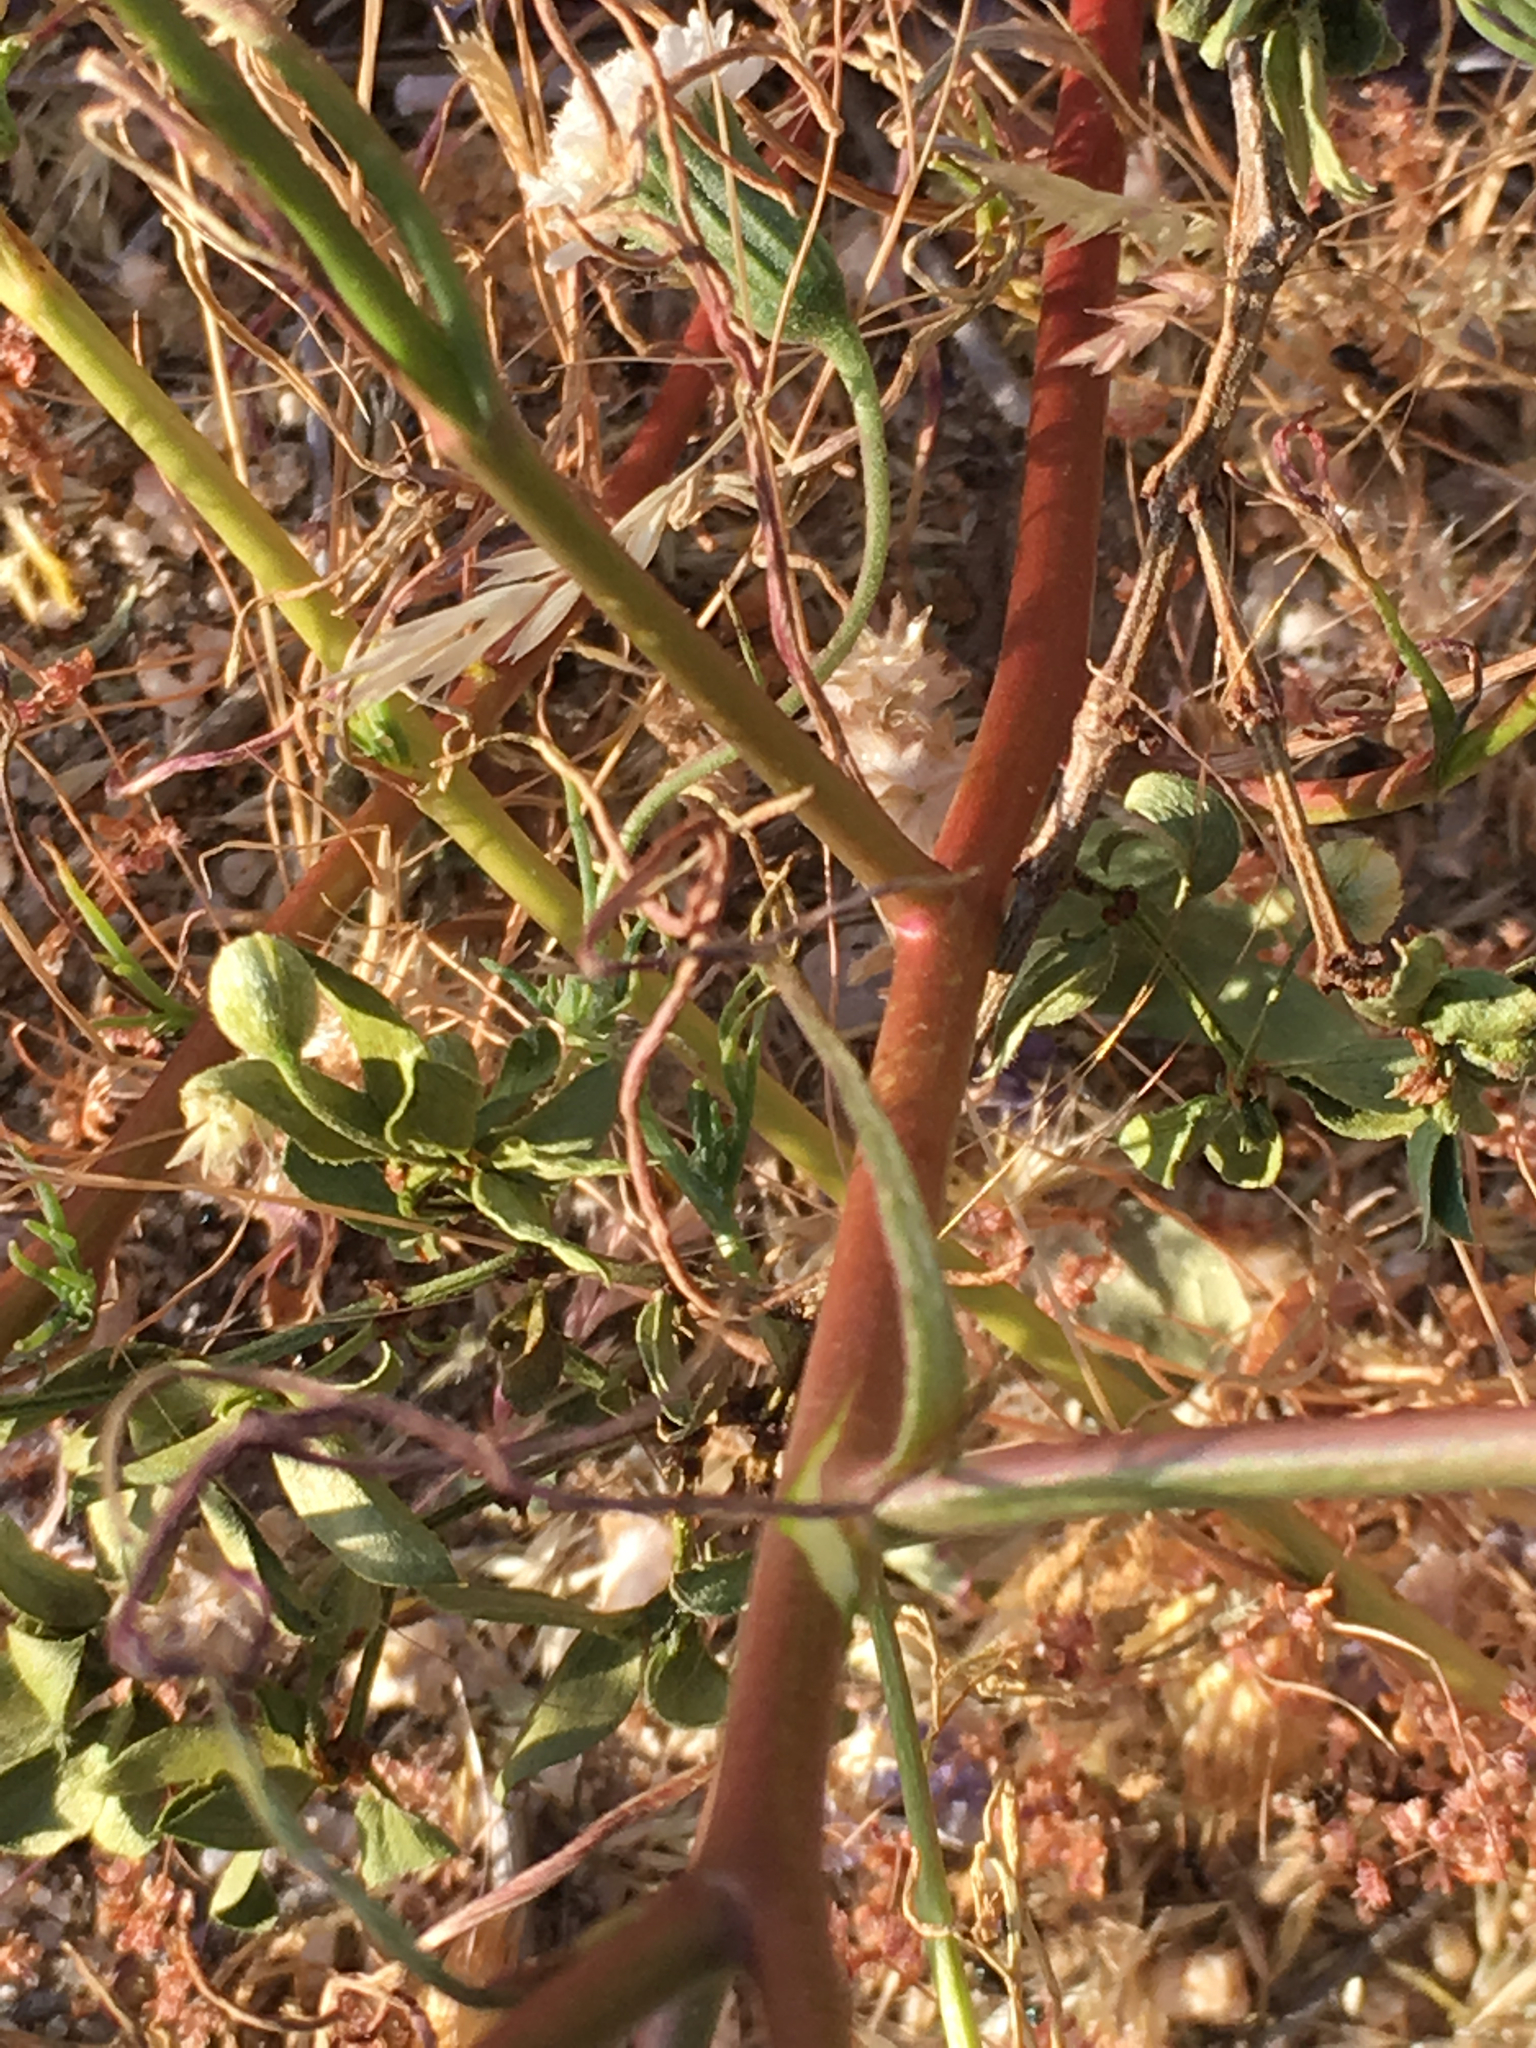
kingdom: Plantae
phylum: Tracheophyta
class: Magnoliopsida
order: Asterales
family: Asteraceae
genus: Chaenactis
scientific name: Chaenactis fremontii
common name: Fremont pincushion
